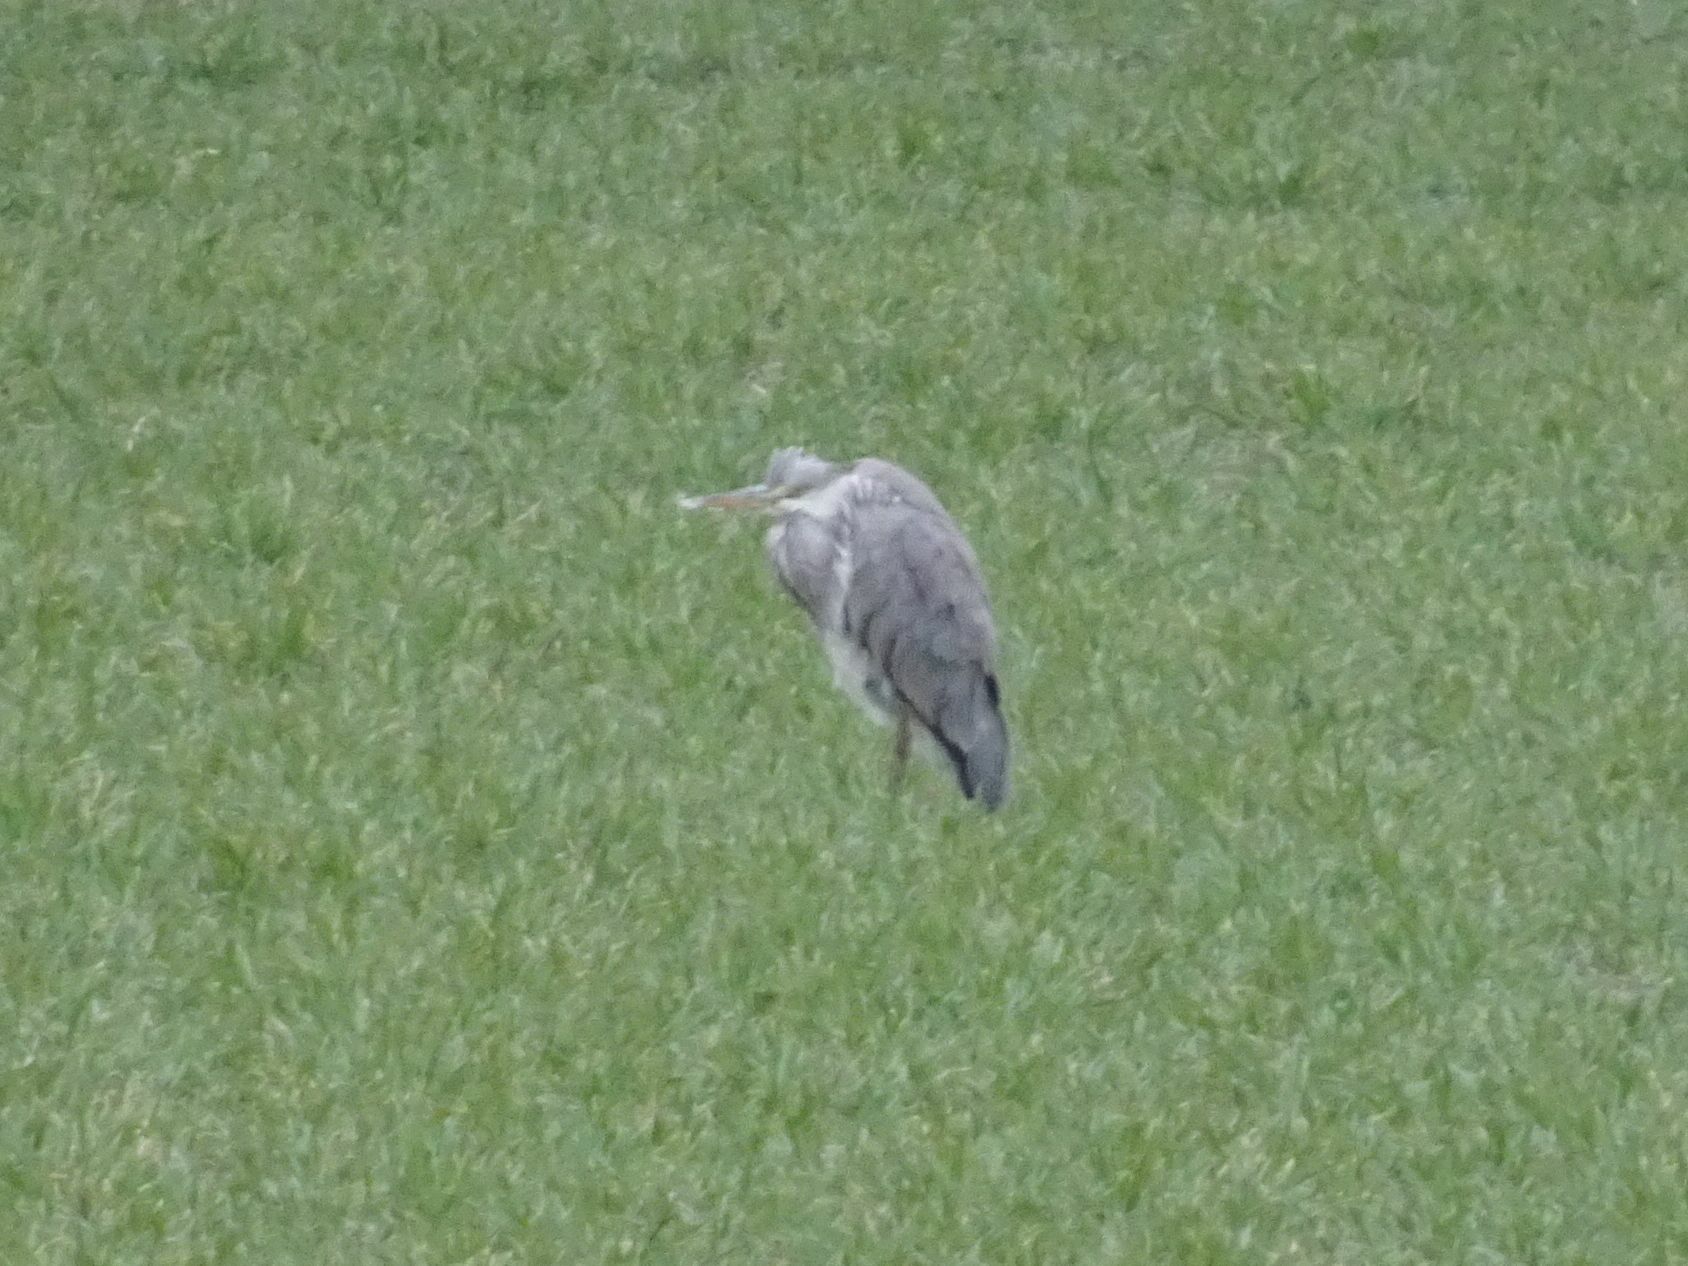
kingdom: Animalia
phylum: Chordata
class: Aves
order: Pelecaniformes
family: Ardeidae
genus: Ardea
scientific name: Ardea cinerea
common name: Grey heron
